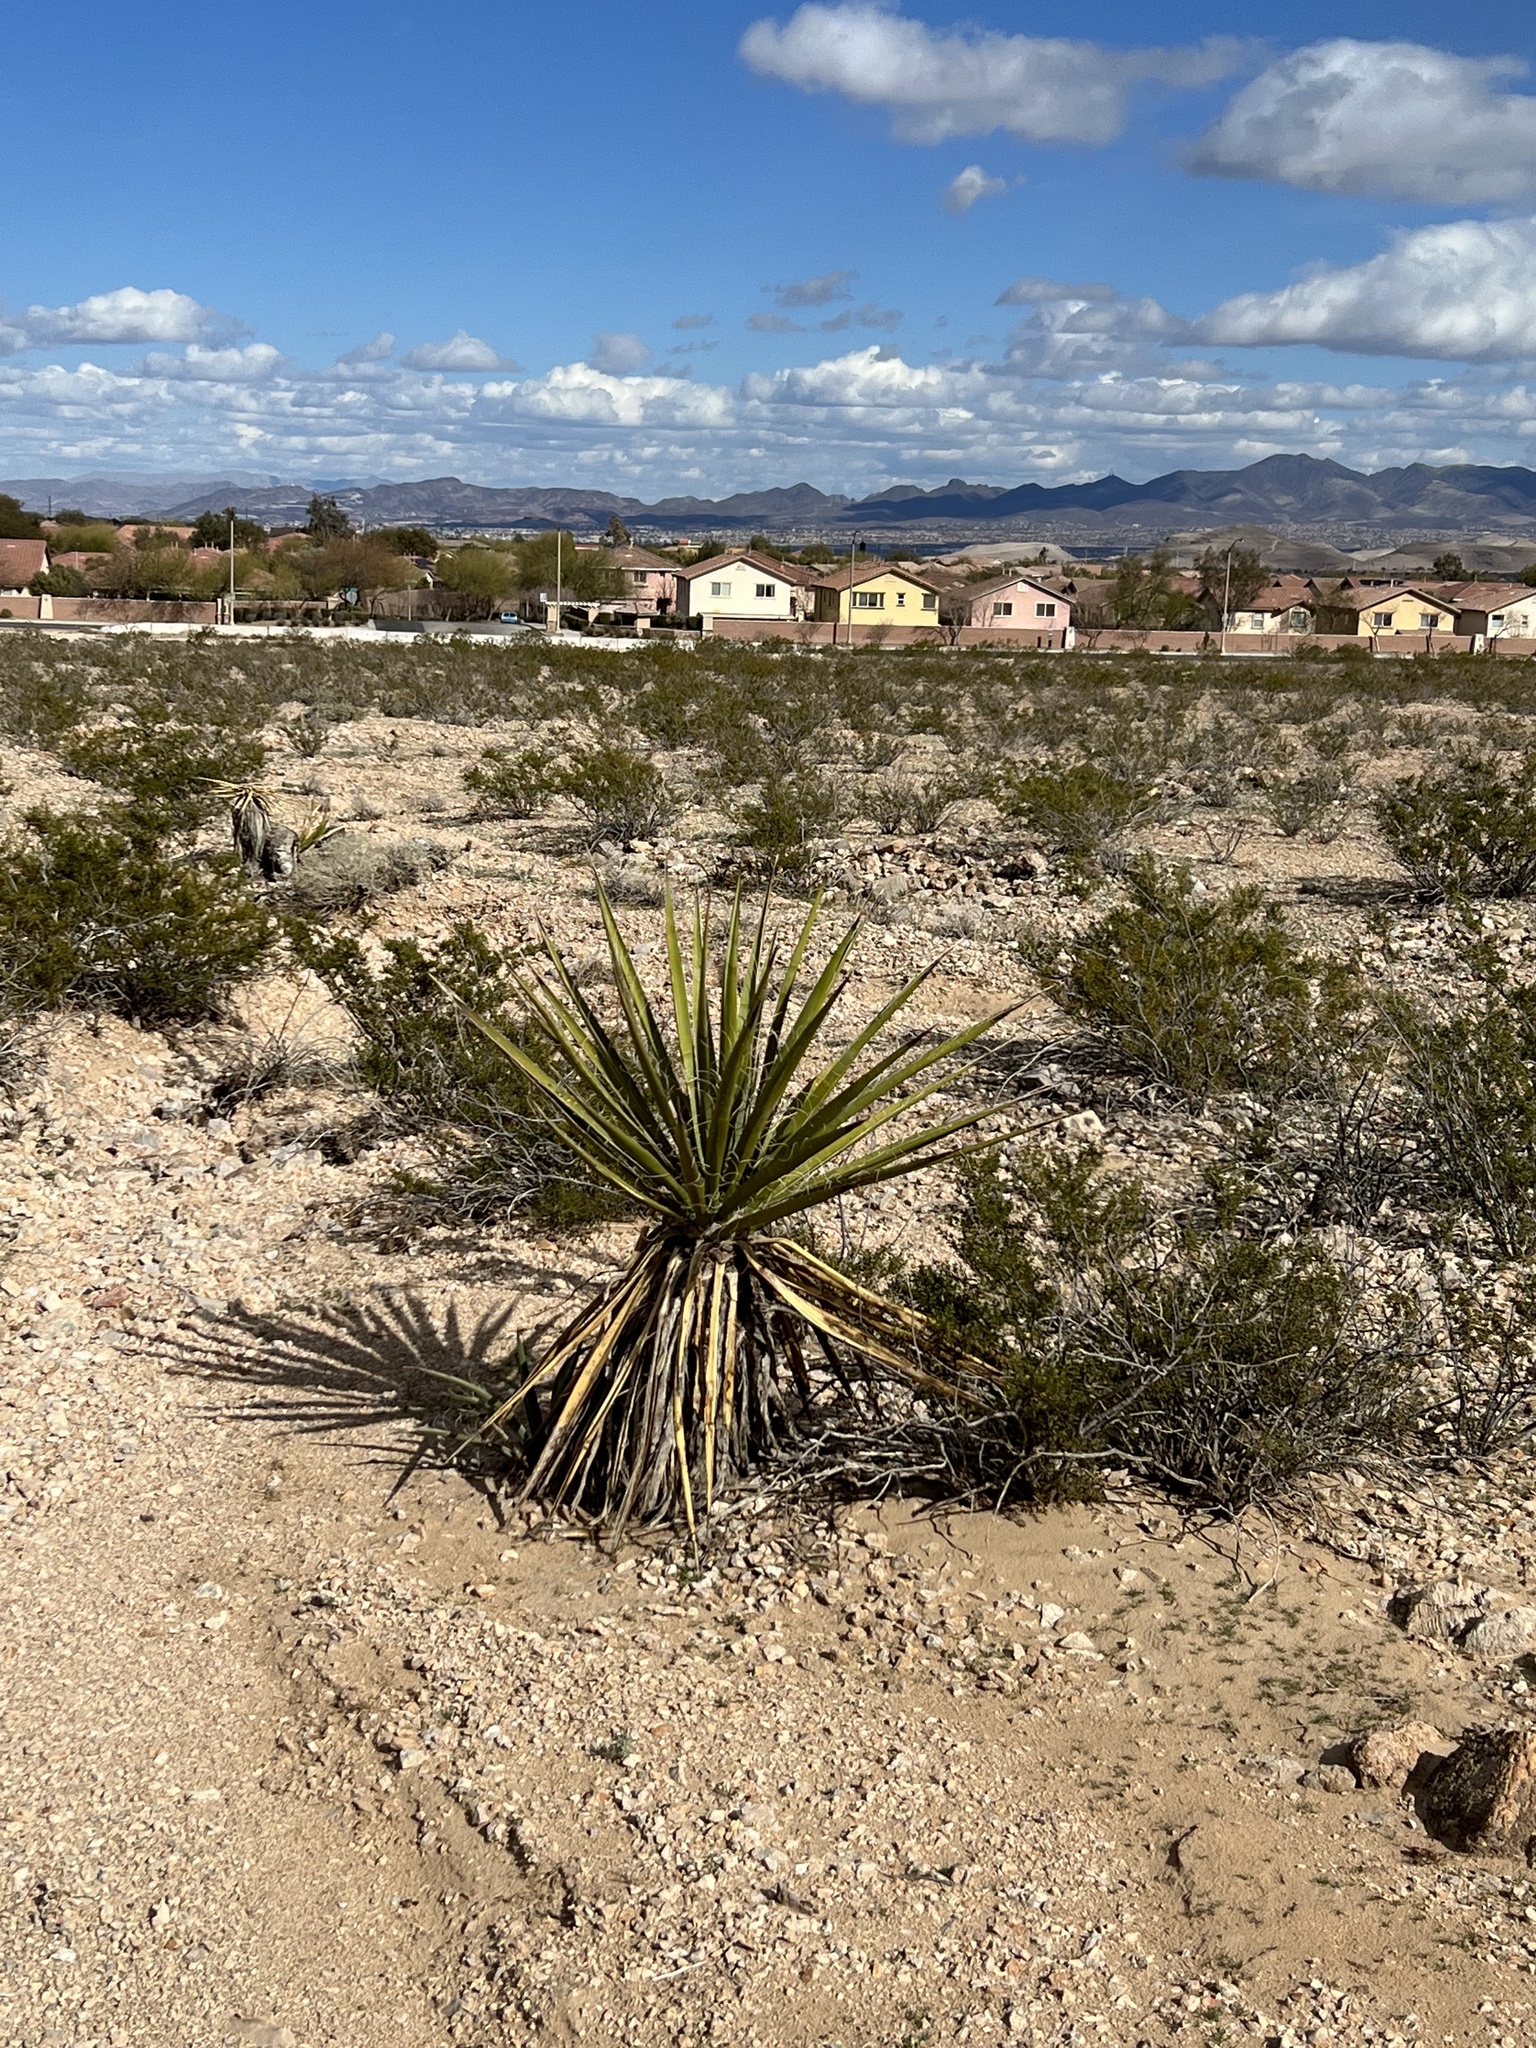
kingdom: Plantae
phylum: Tracheophyta
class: Liliopsida
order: Asparagales
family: Asparagaceae
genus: Yucca
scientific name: Yucca schidigera
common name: Mojave yucca
